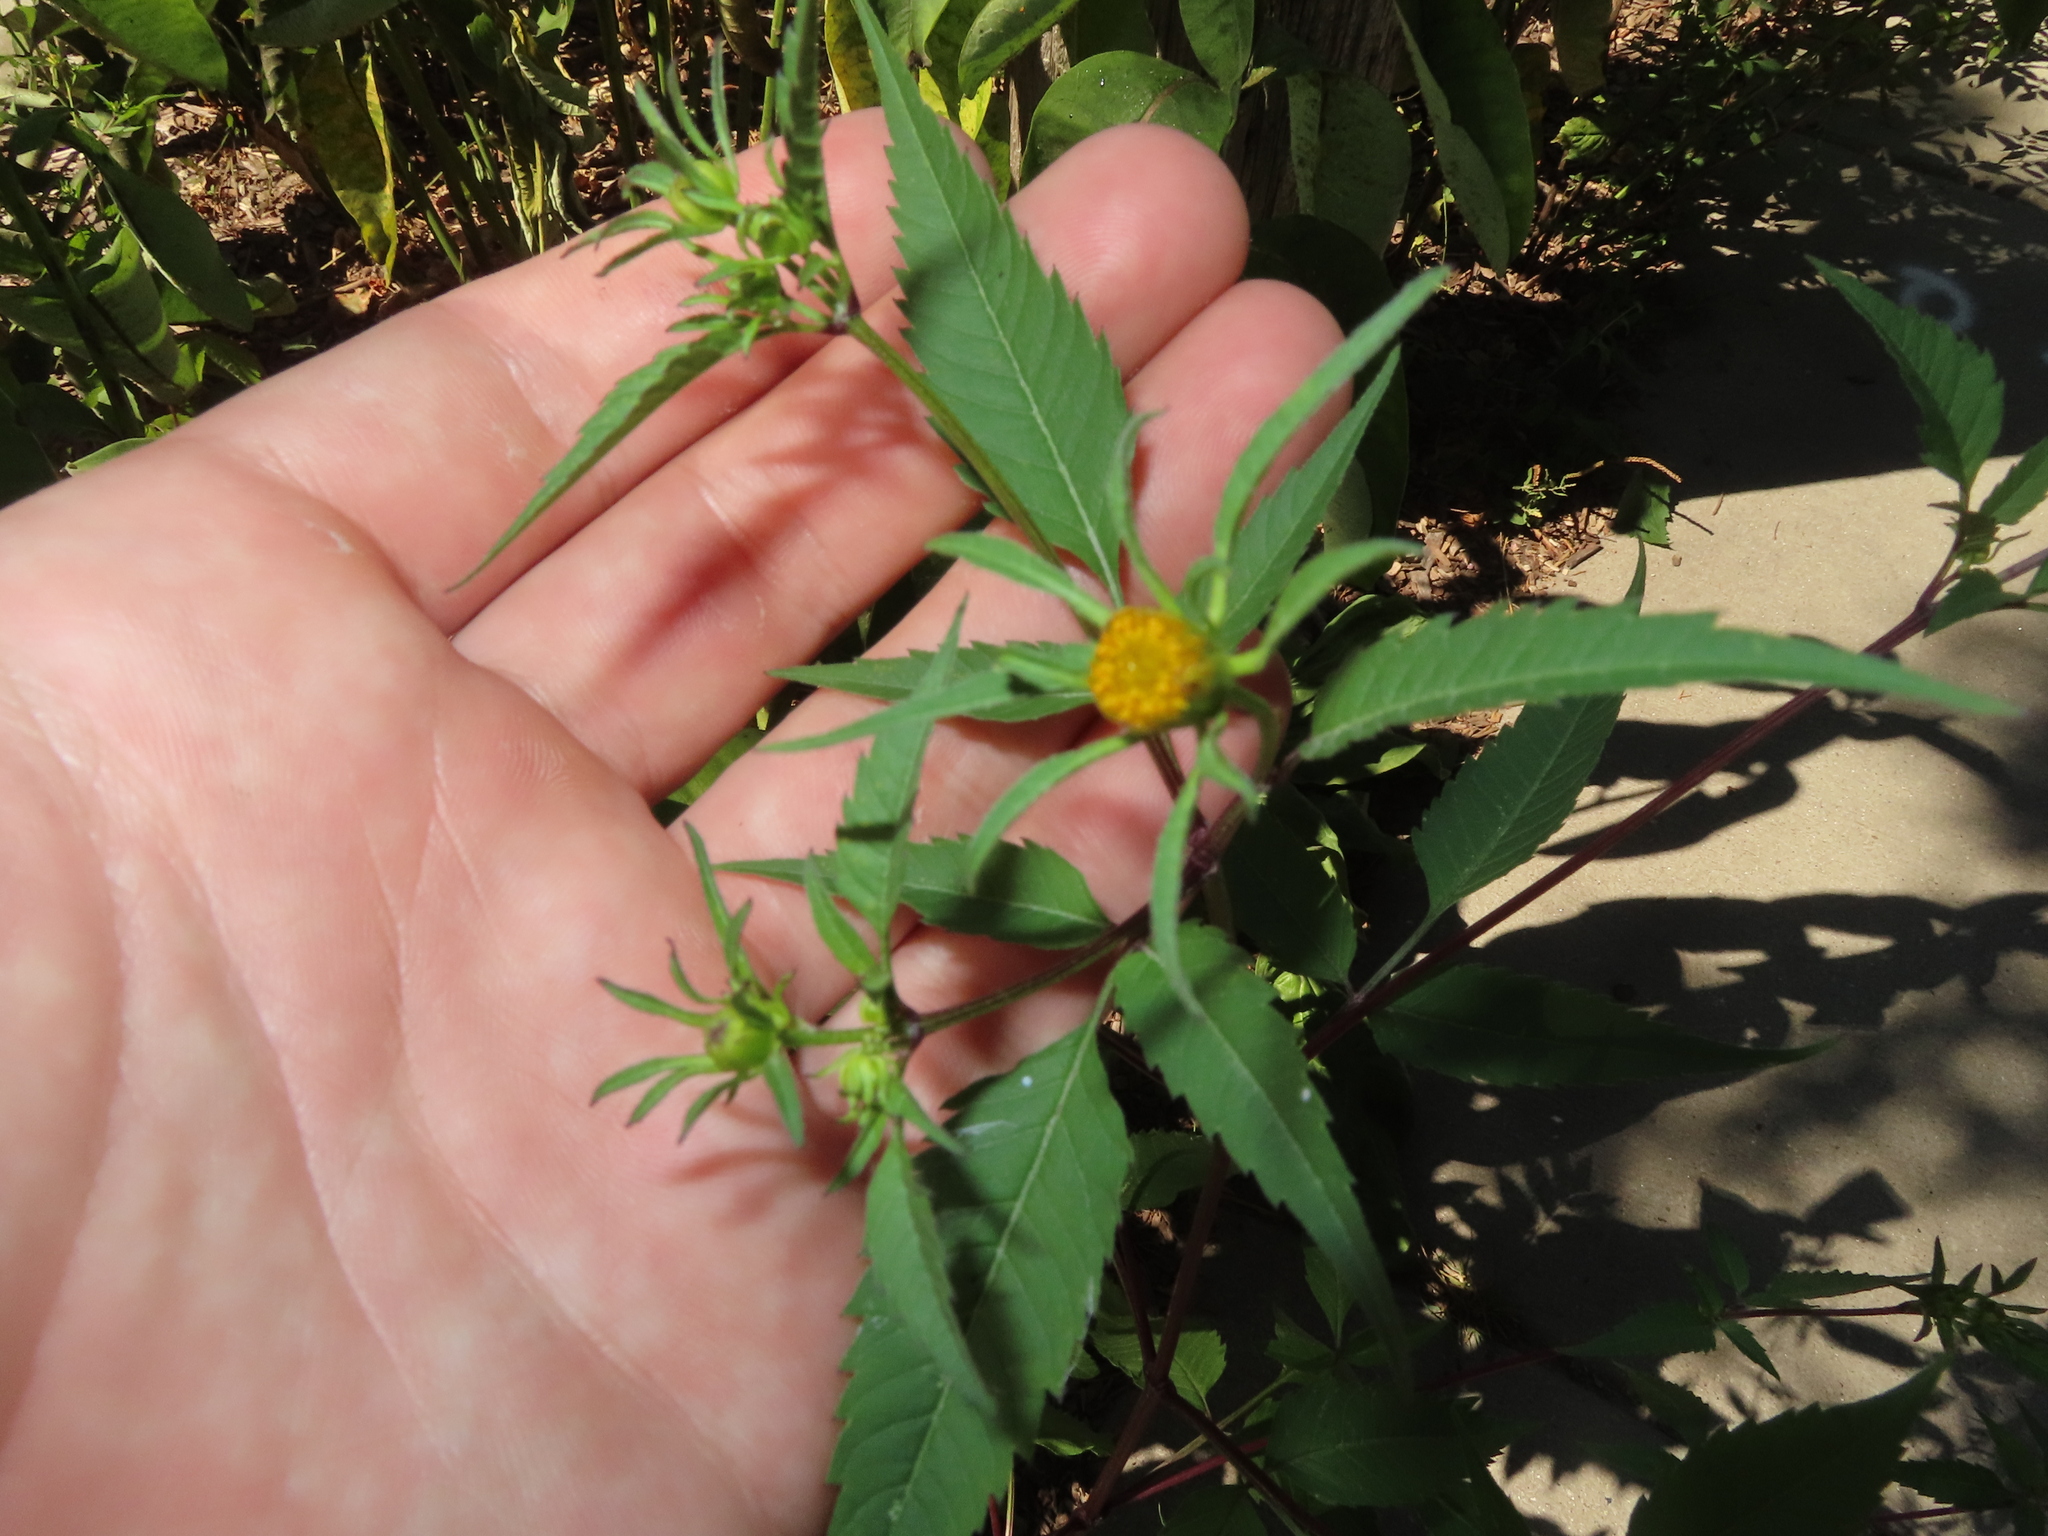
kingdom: Plantae
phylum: Tracheophyta
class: Magnoliopsida
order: Asterales
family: Asteraceae
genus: Bidens
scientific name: Bidens frondosa
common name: Beggarticks
